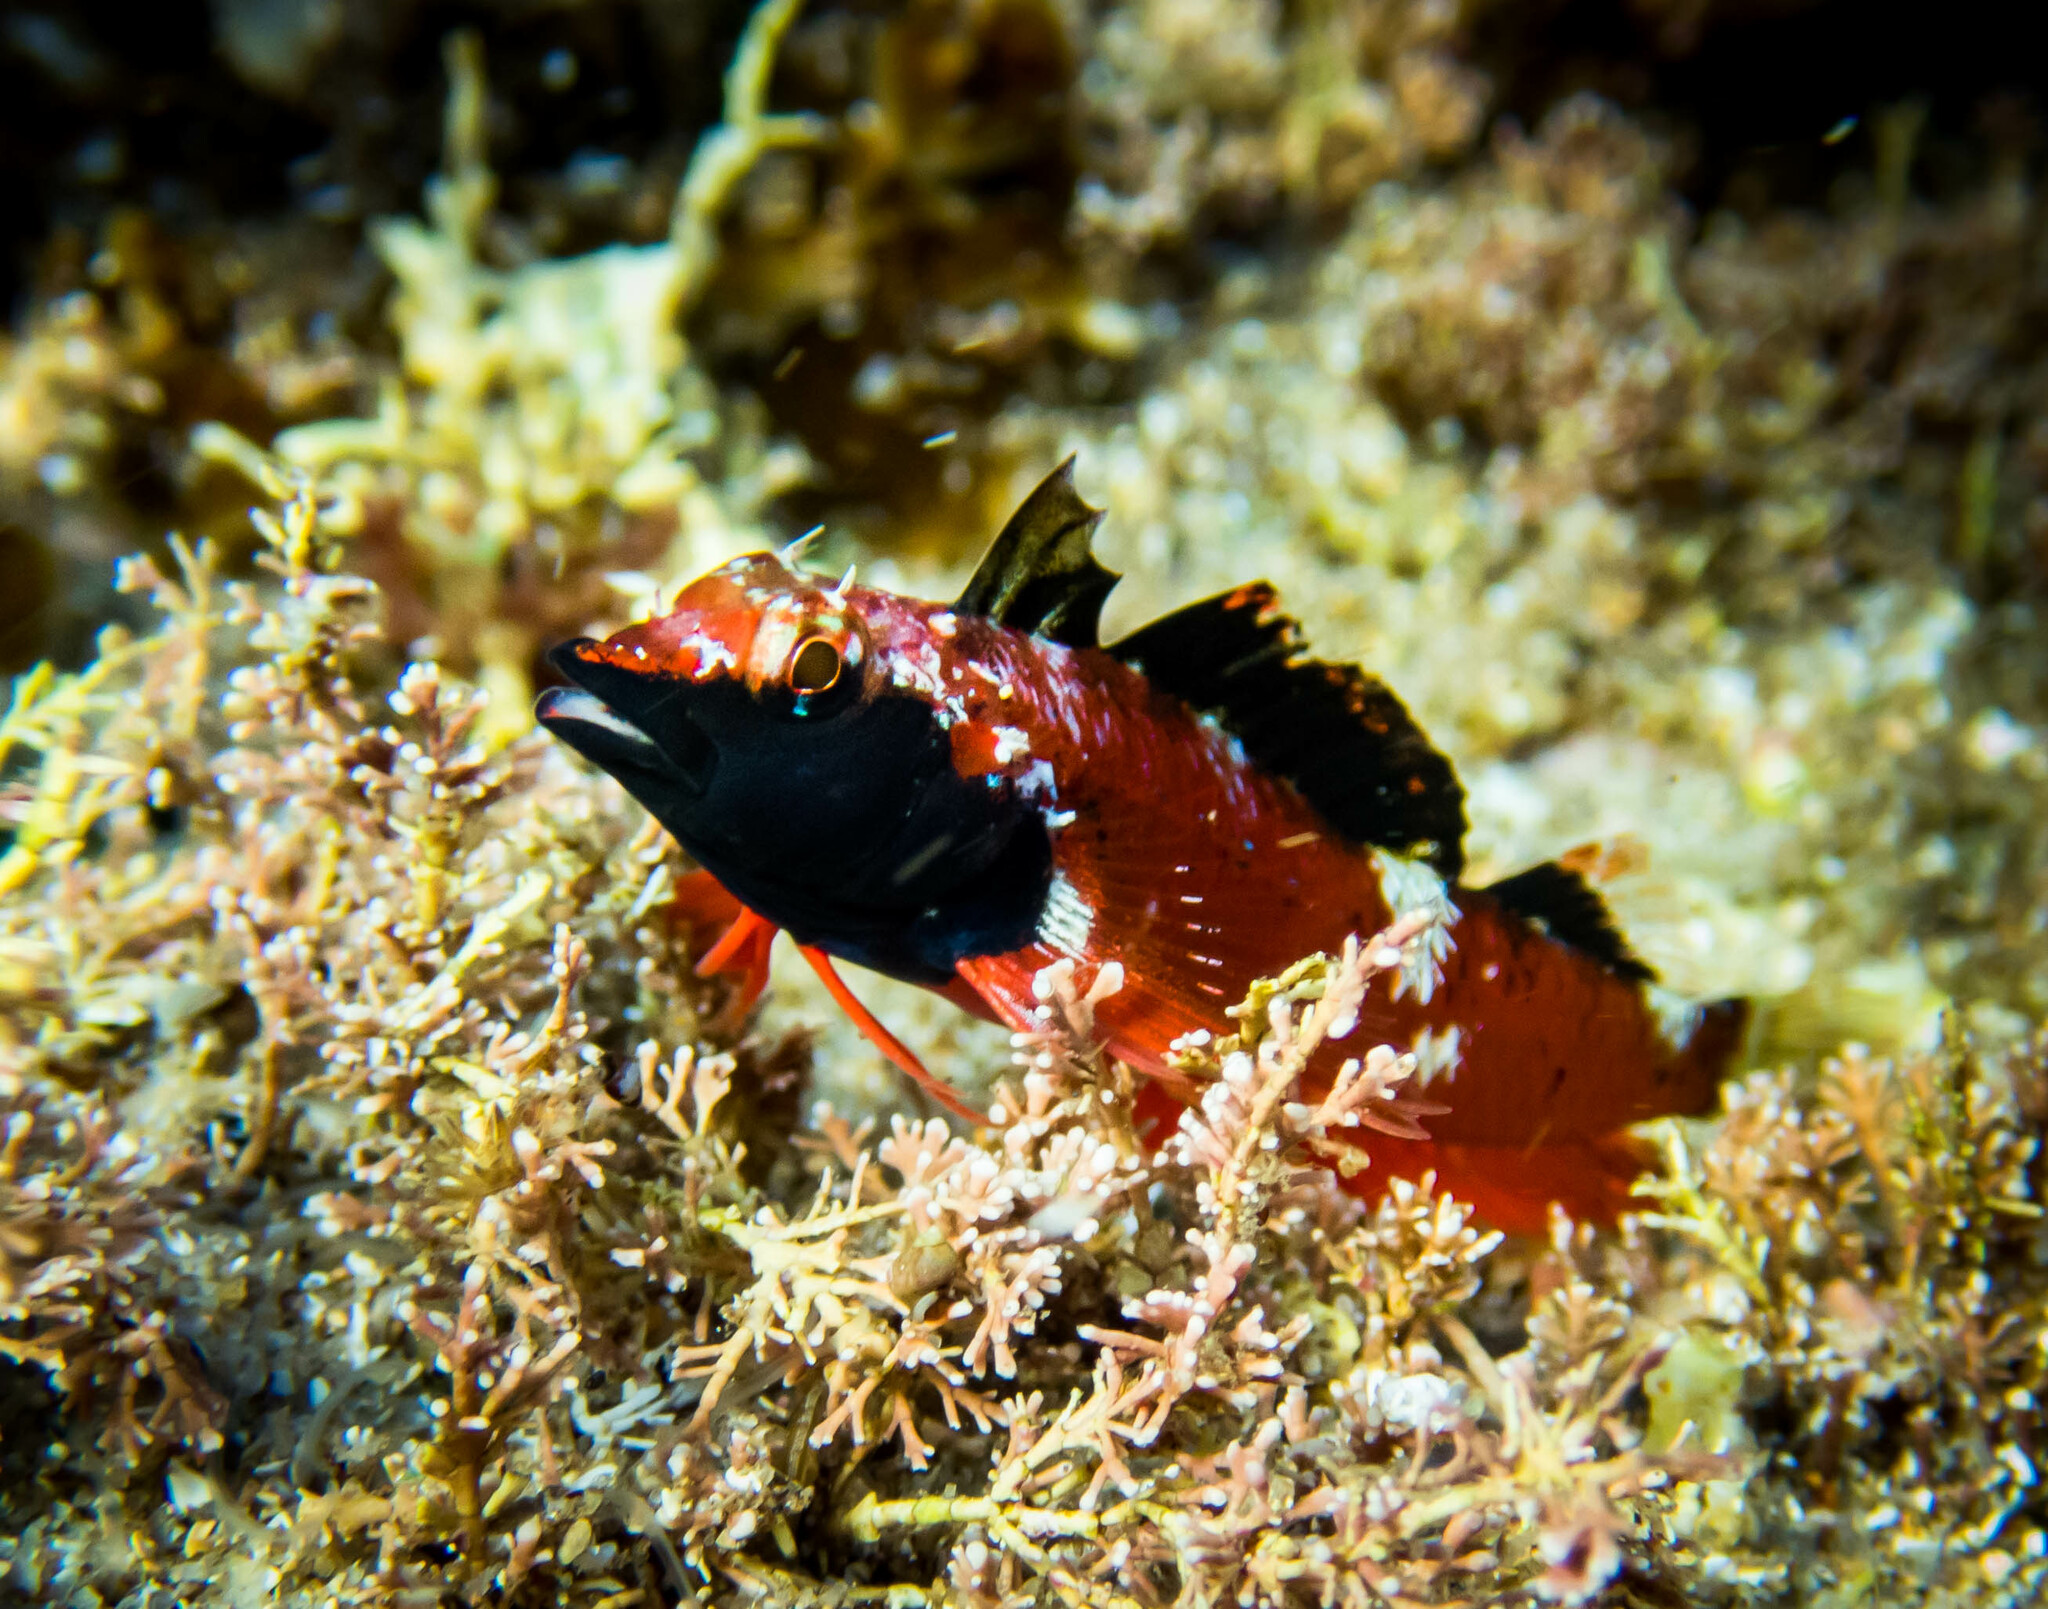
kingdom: Animalia
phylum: Chordata
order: Perciformes
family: Tripterygiidae
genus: Enneapterygius
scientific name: Enneapterygius atrogulare
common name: Blackthroat triplefin
